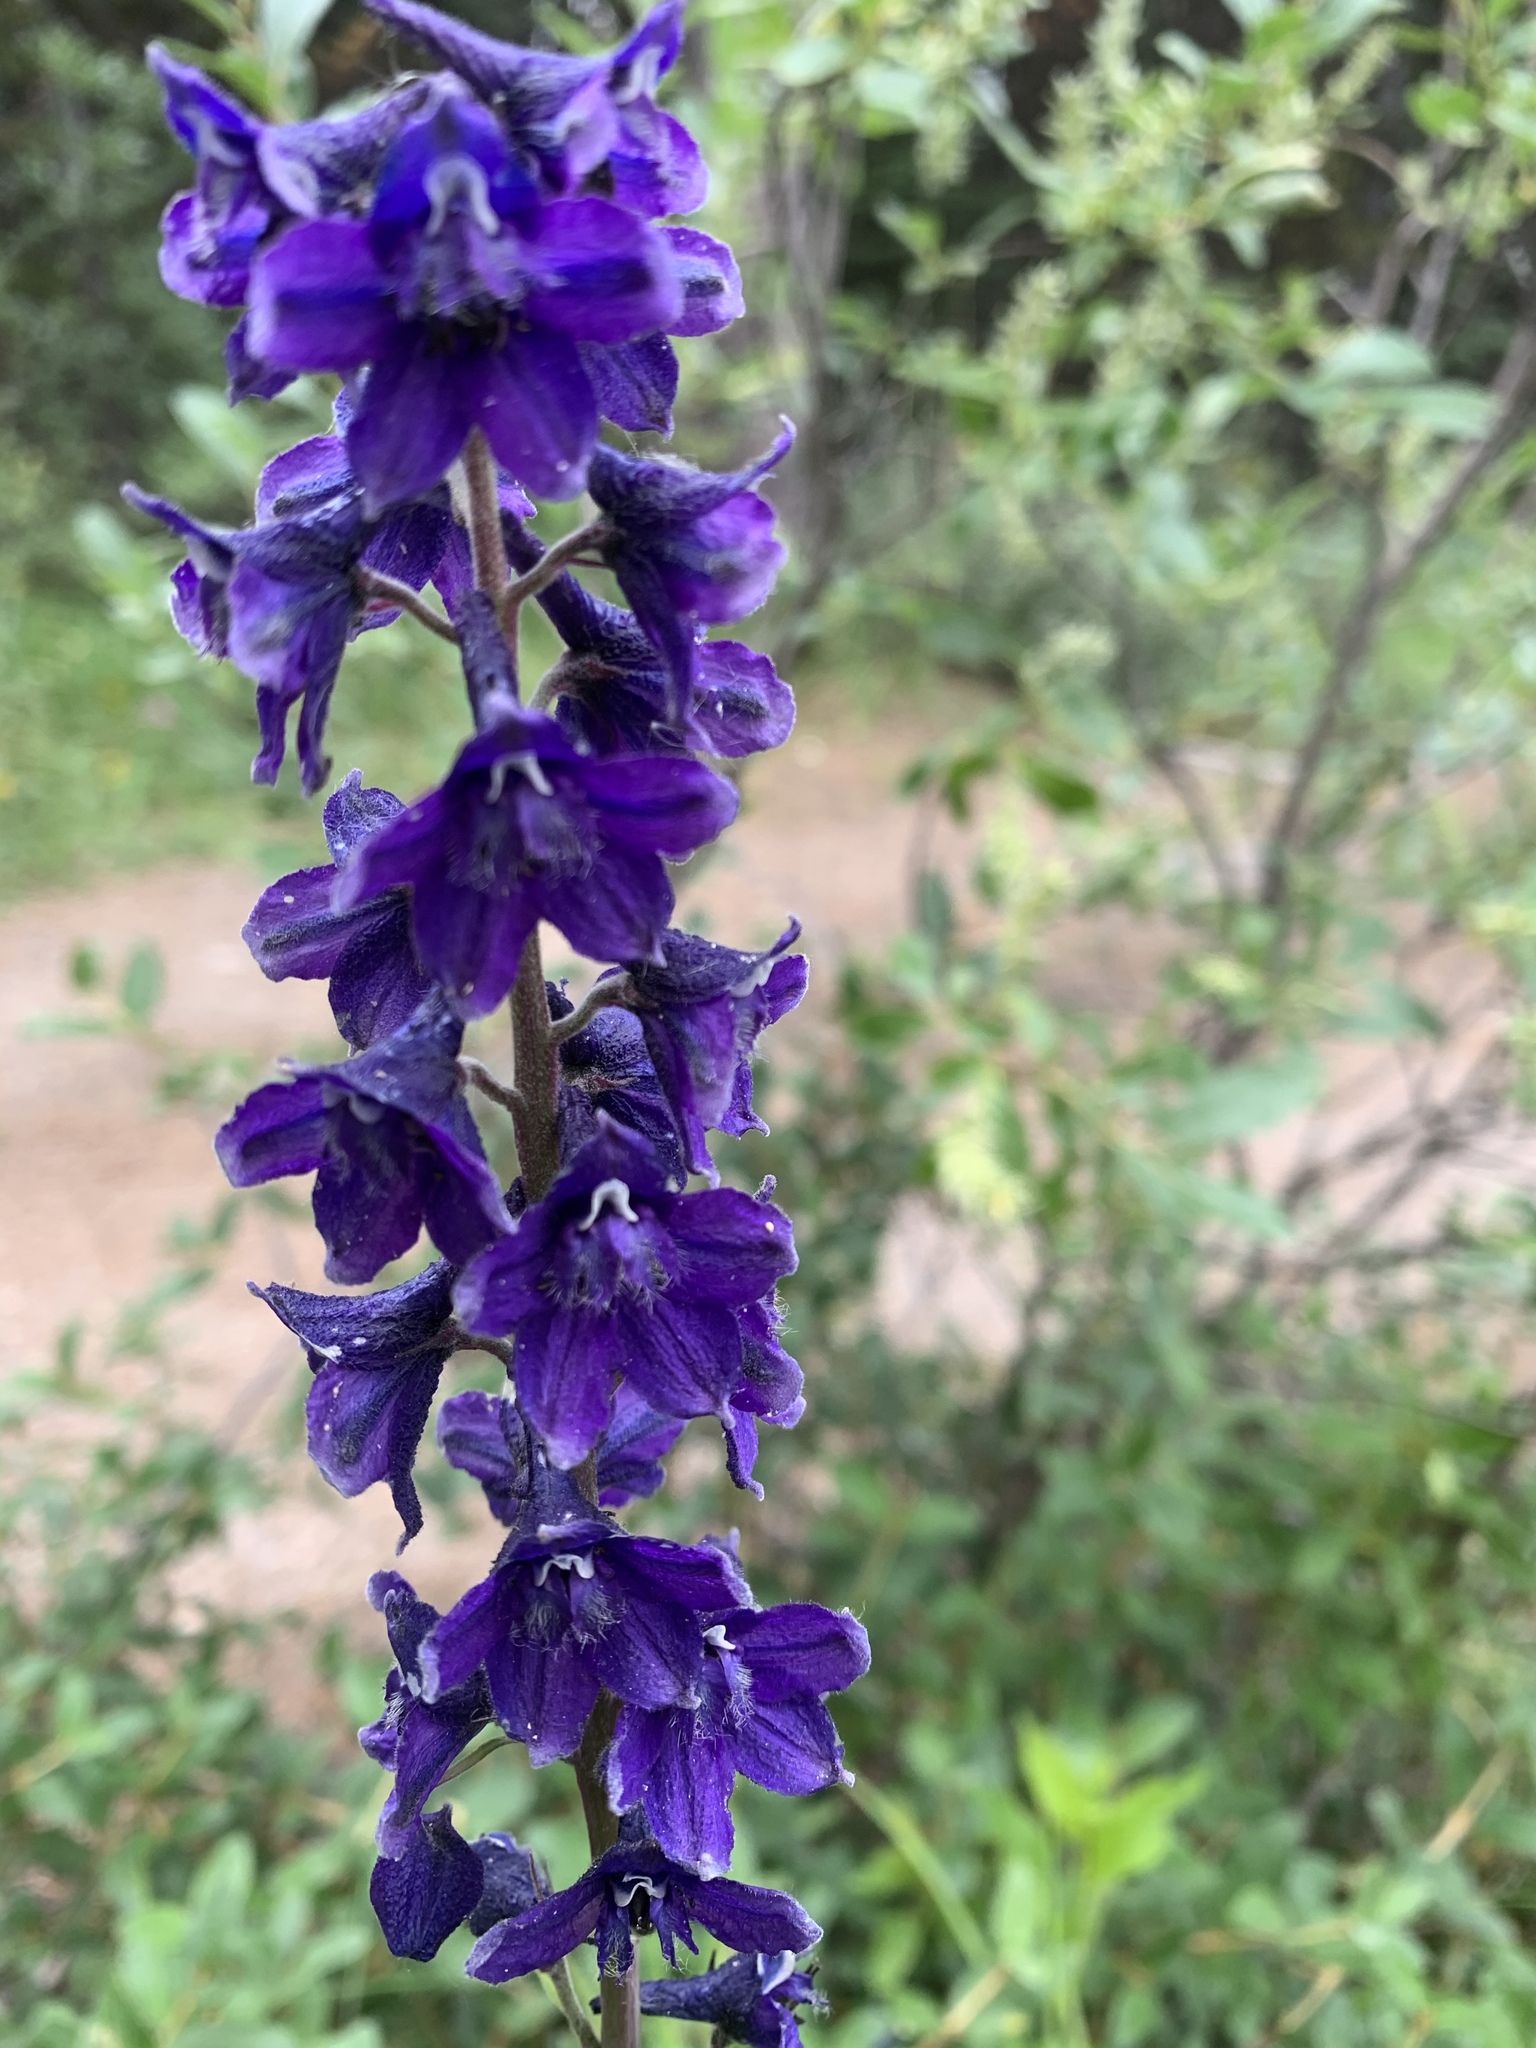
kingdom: Plantae
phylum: Tracheophyta
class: Magnoliopsida
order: Ranunculales
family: Ranunculaceae
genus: Delphinium
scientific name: Delphinium glaucum
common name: Brown's larkspur
